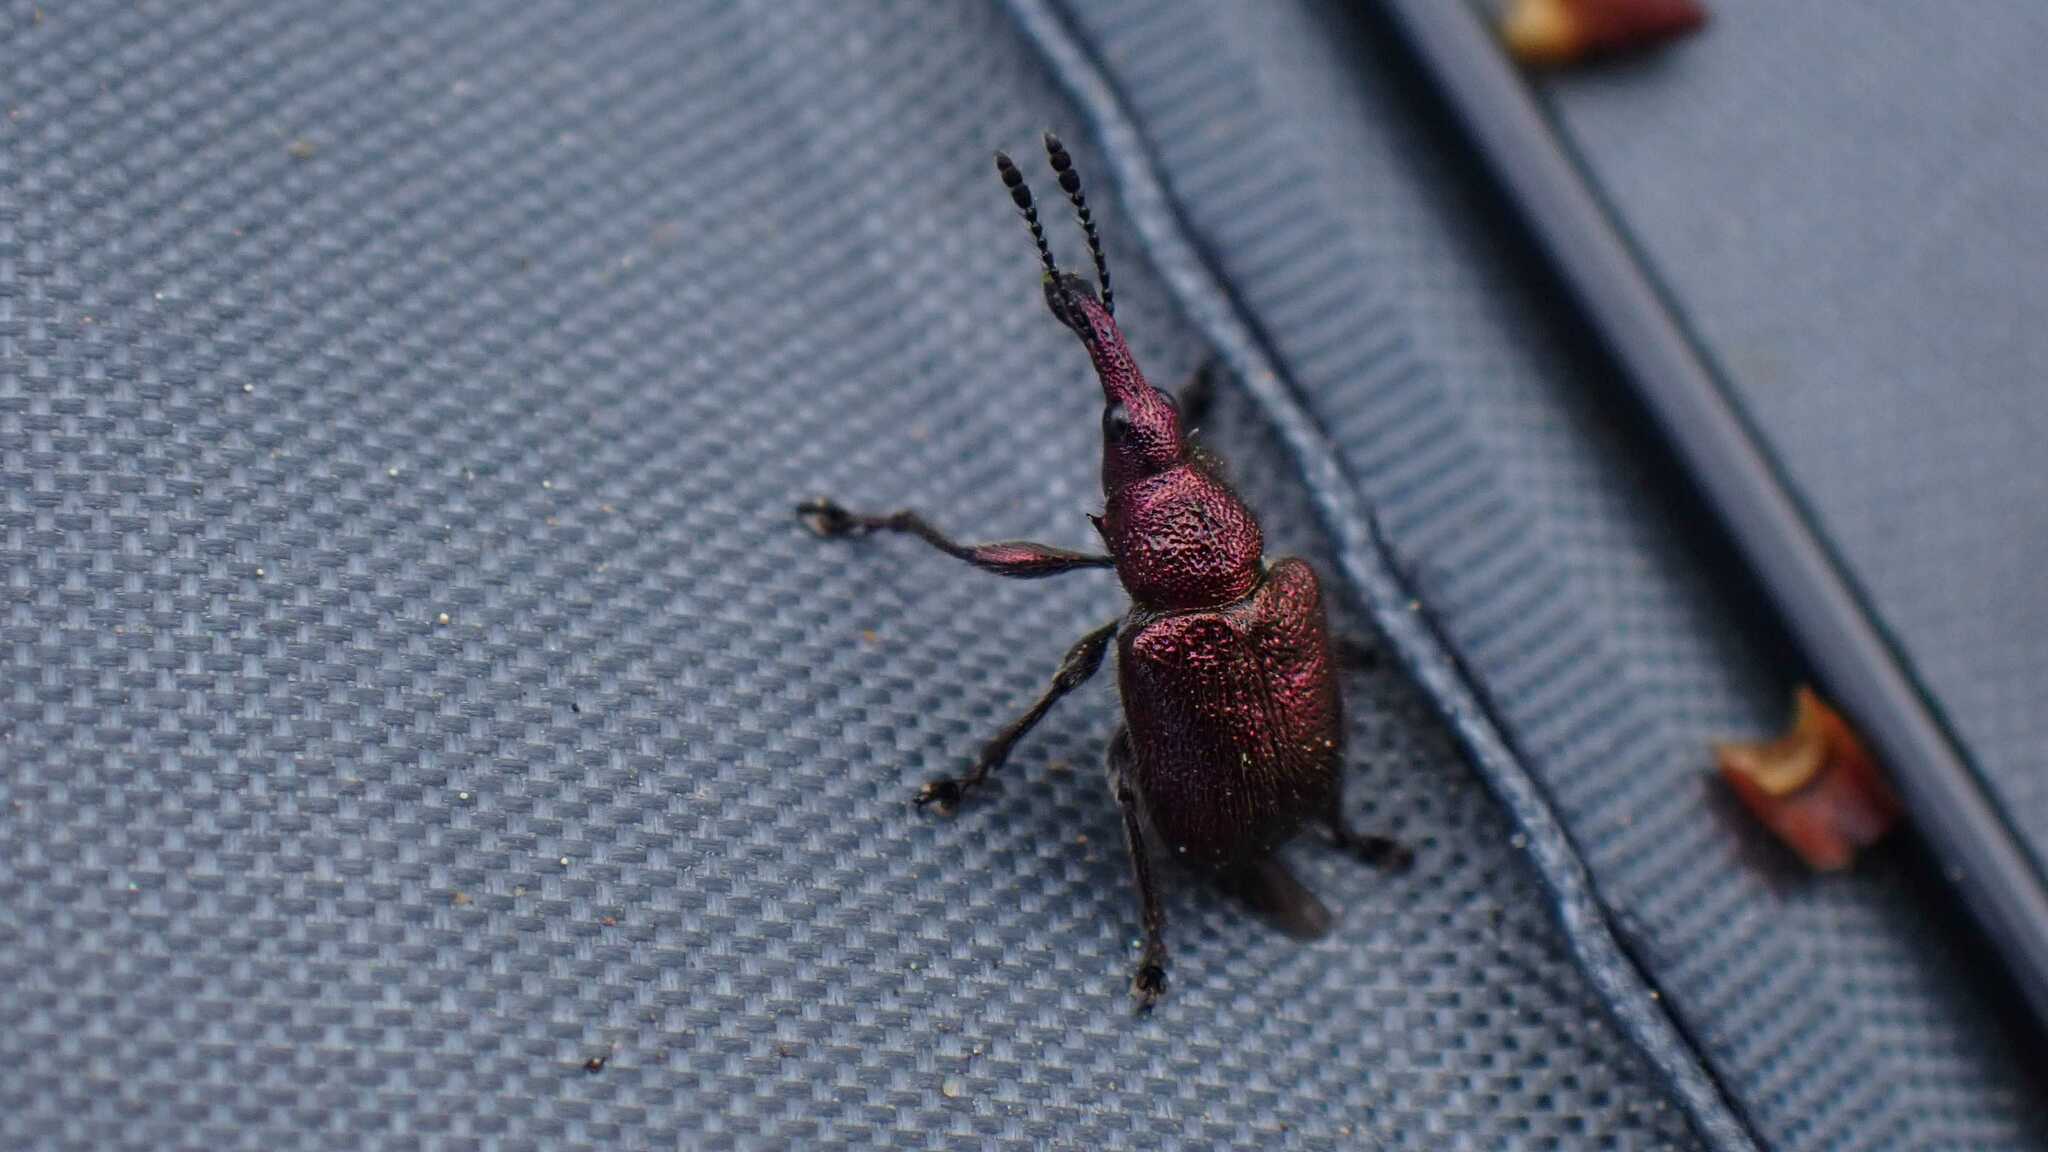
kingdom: Animalia
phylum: Arthropoda
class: Insecta
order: Coleoptera
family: Attelabidae
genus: Rhynchites
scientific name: Rhynchites auratus
